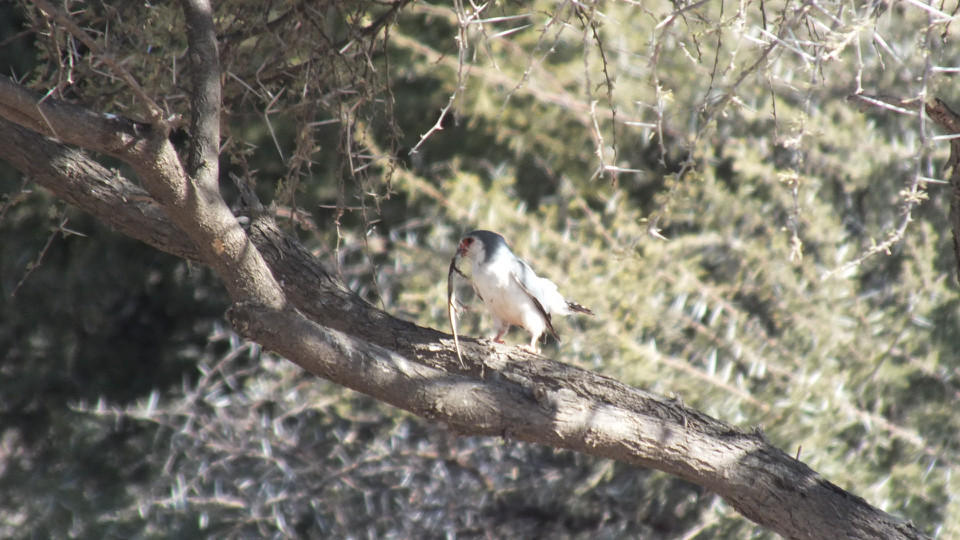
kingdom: Animalia
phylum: Chordata
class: Aves
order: Falconiformes
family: Falconidae
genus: Polihierax
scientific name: Polihierax semitorquatus
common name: Pygmy falcon
